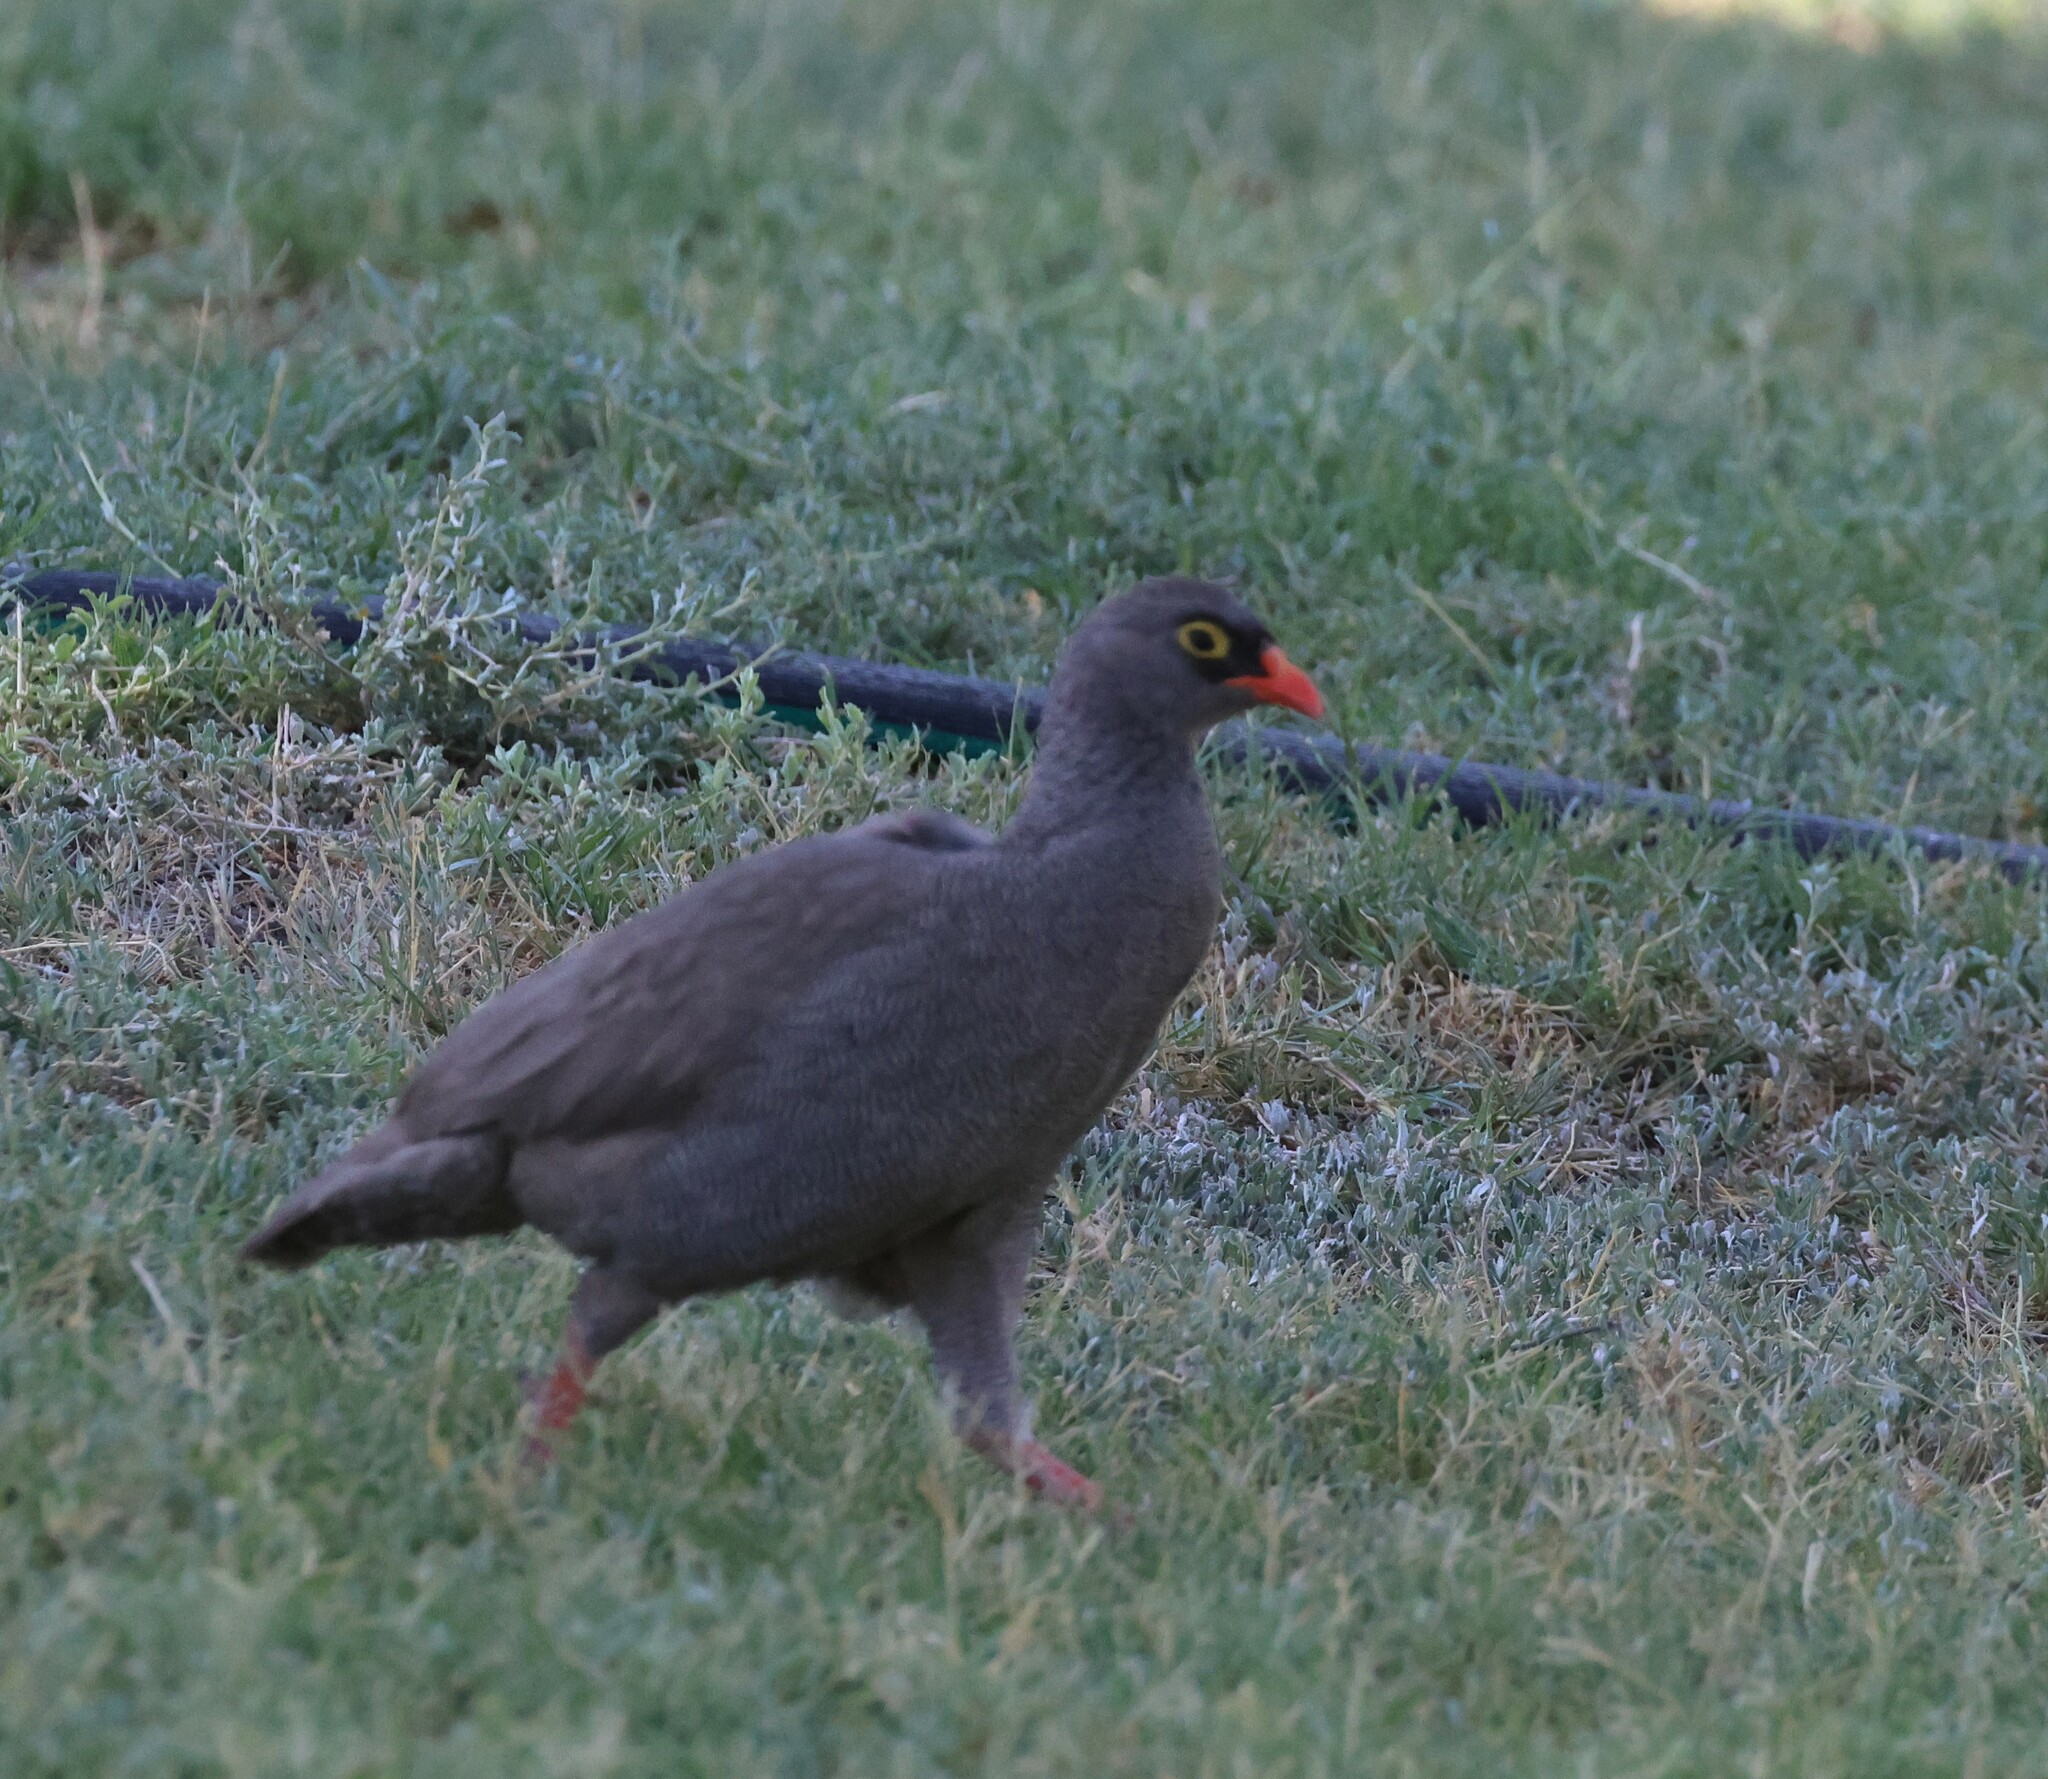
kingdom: Animalia
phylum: Chordata
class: Aves
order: Galliformes
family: Phasianidae
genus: Pternistis
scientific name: Pternistis adspersus
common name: Red-billed spurfowl
